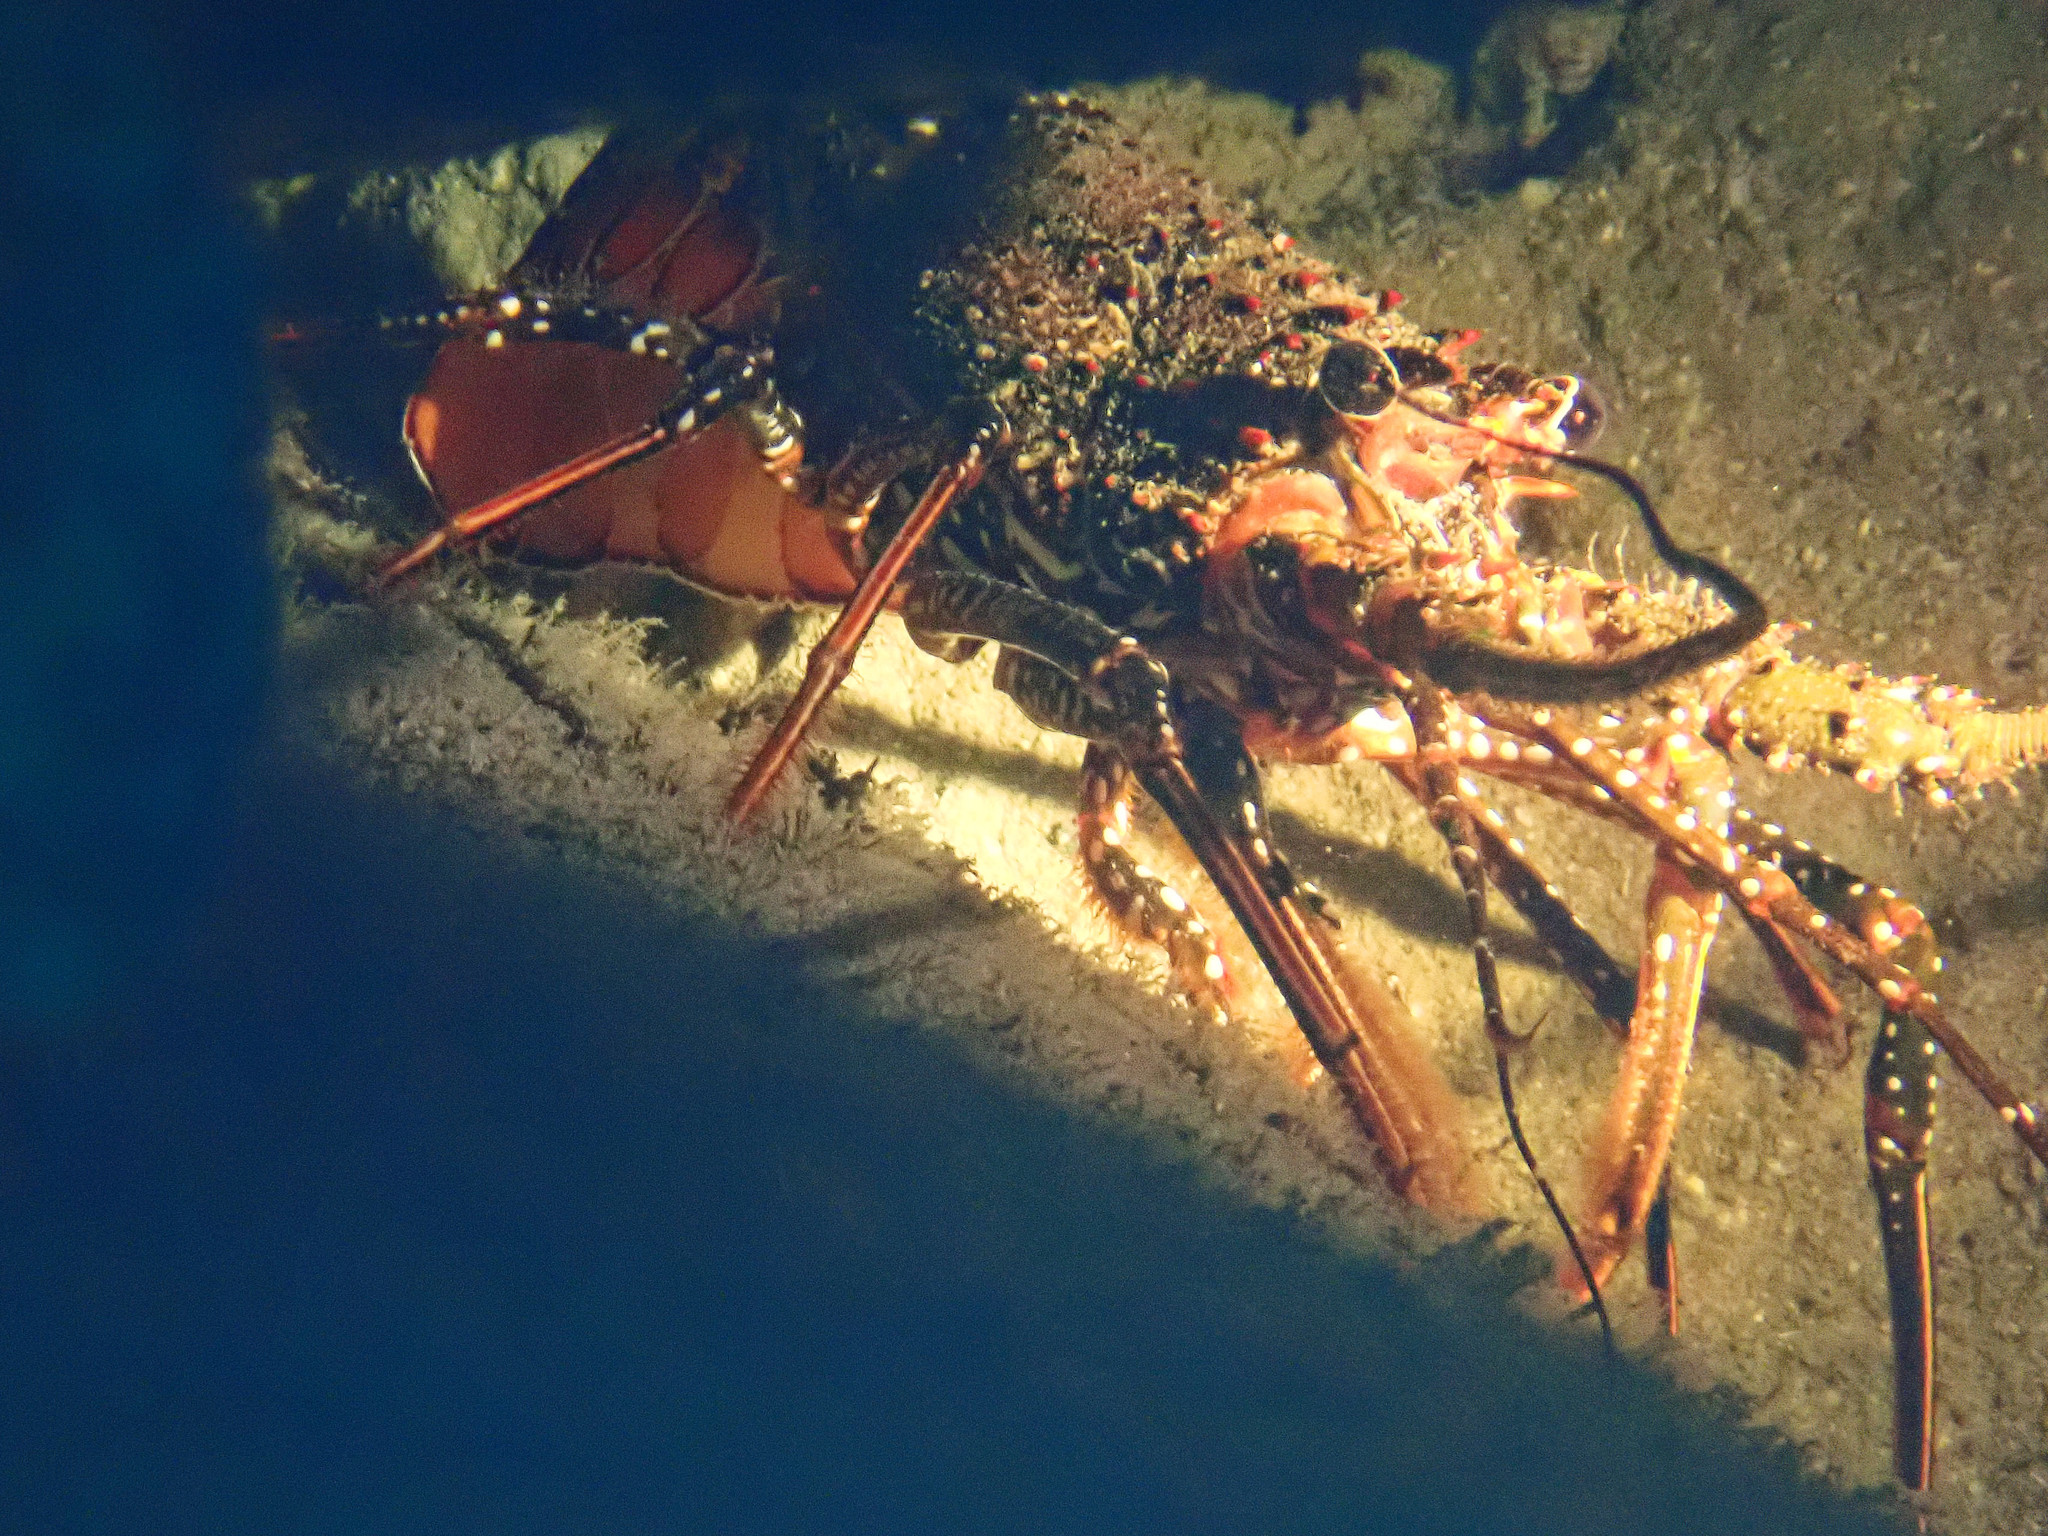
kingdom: Animalia
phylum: Arthropoda
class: Malacostraca
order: Decapoda
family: Palinuridae
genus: Panulirus
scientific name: Panulirus guttatus
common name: Spotted spiny lobster
